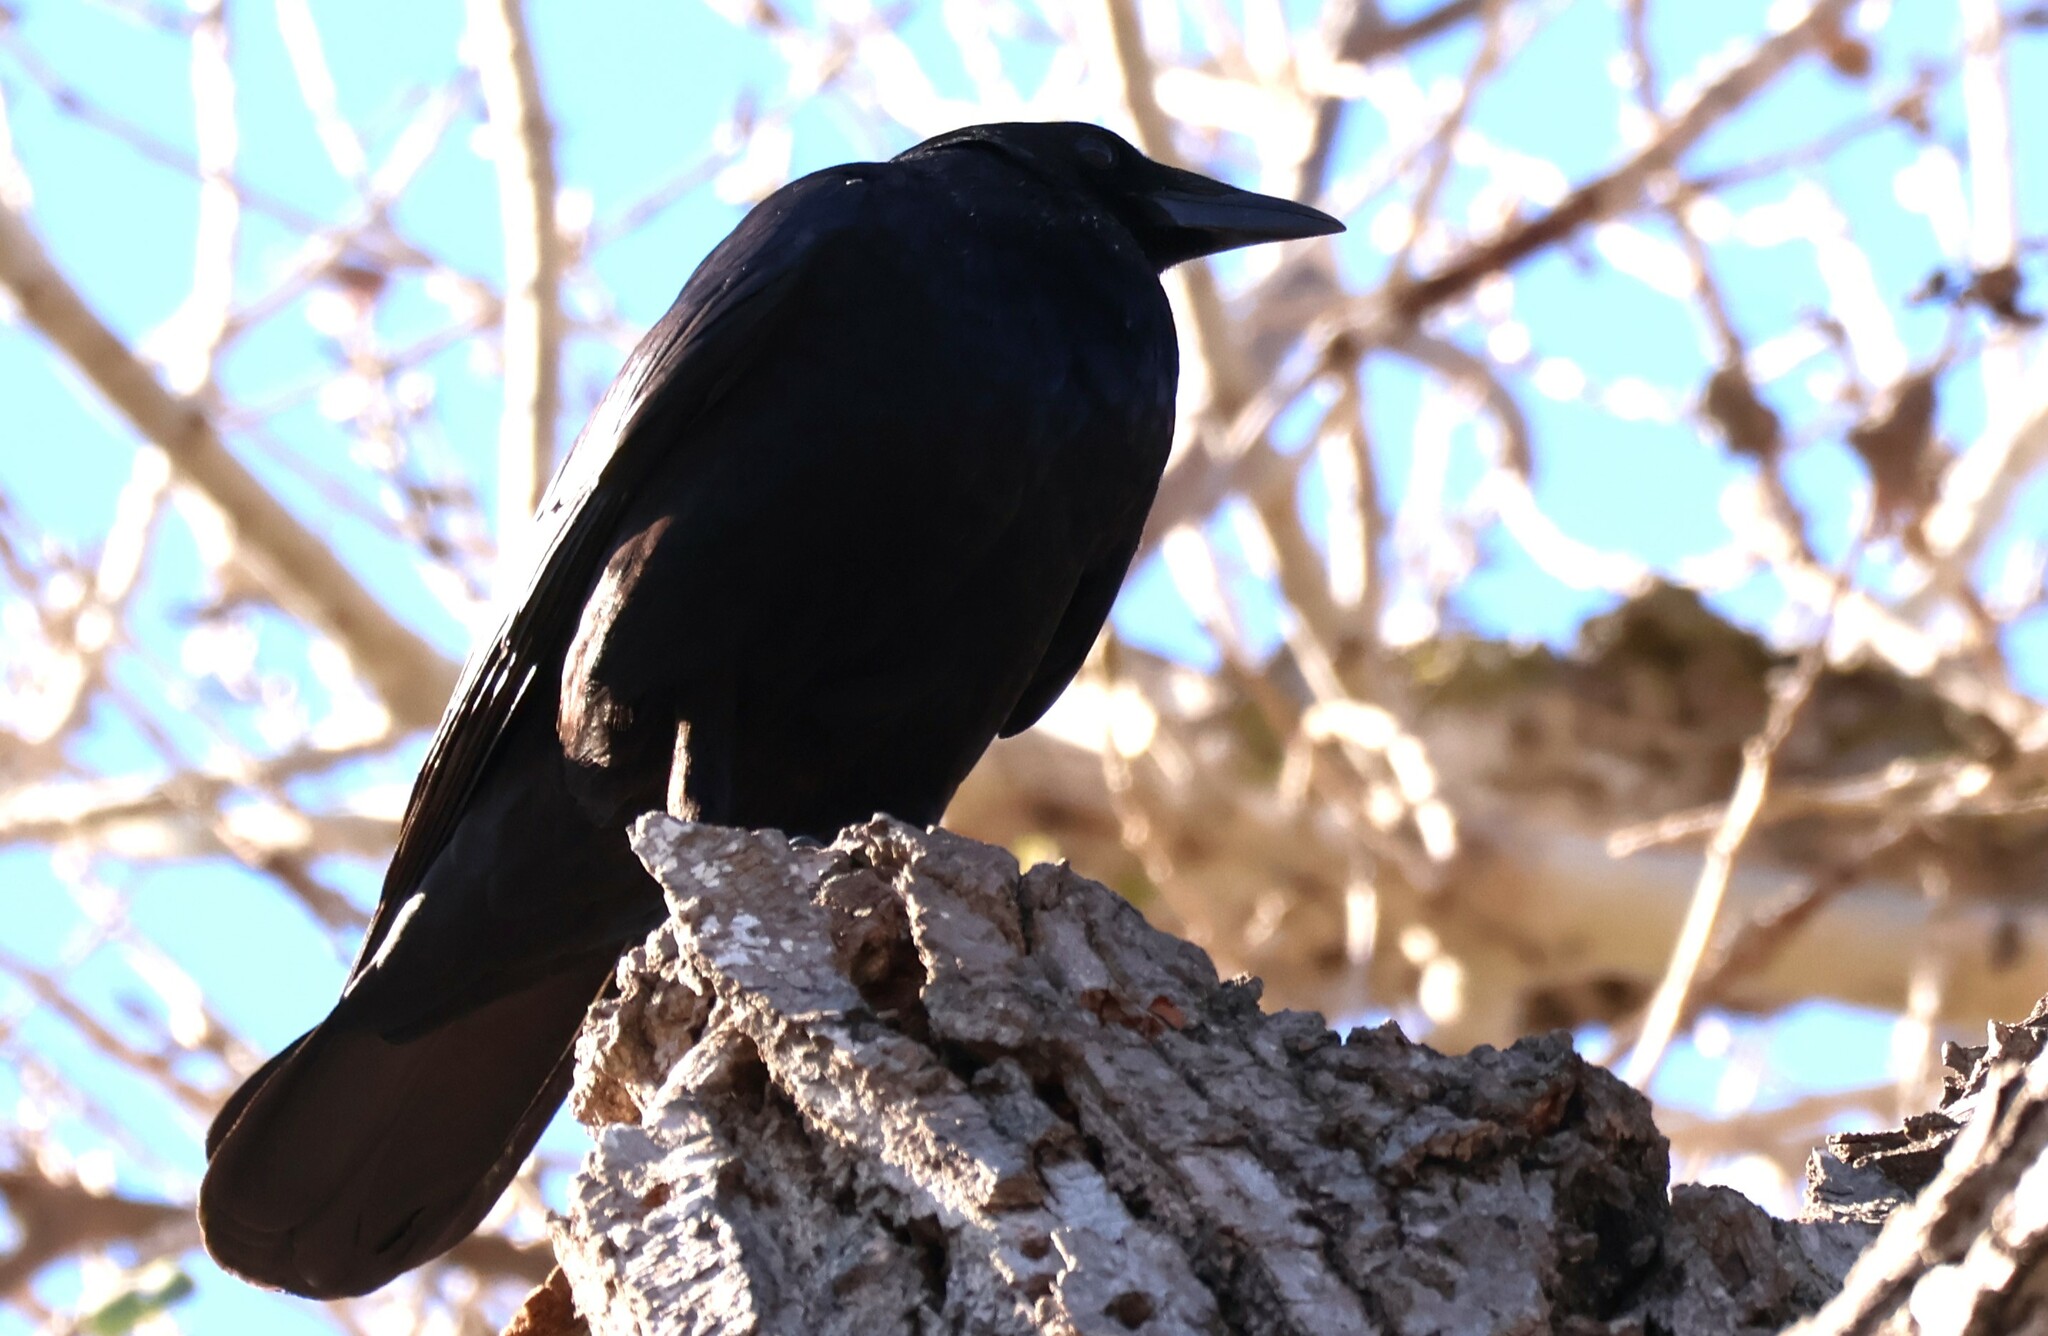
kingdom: Animalia
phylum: Chordata
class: Aves
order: Passeriformes
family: Corvidae
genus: Corvus
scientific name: Corvus brachyrhynchos
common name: American crow
